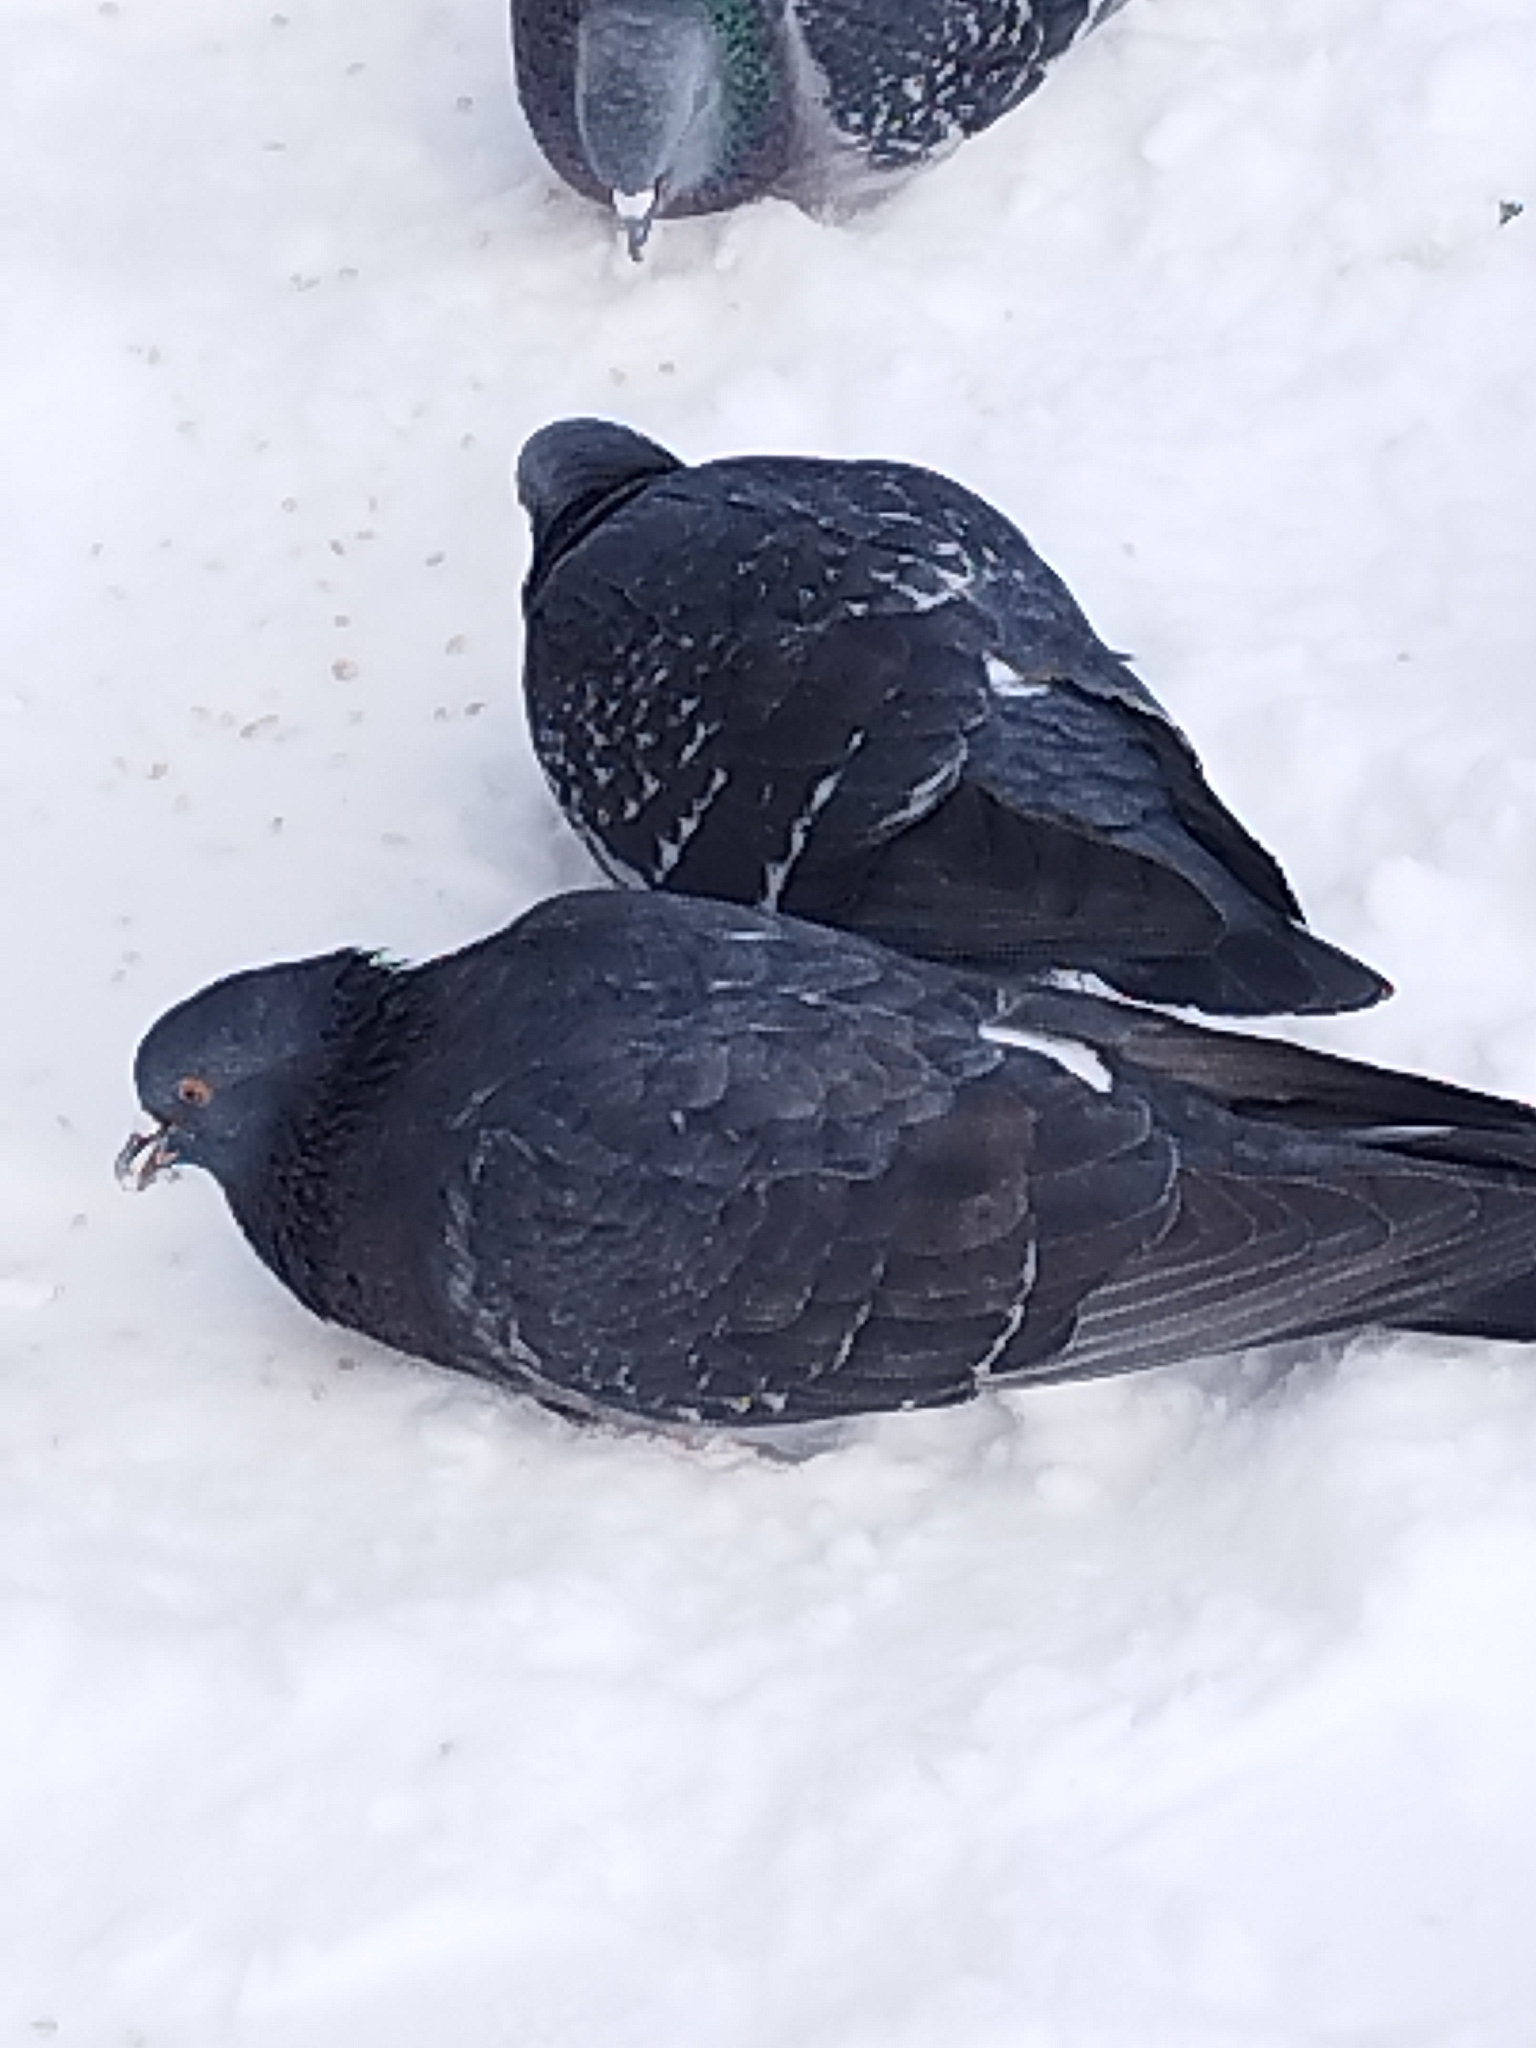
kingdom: Animalia
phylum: Chordata
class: Aves
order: Columbiformes
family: Columbidae
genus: Columba
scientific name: Columba livia
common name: Rock pigeon
